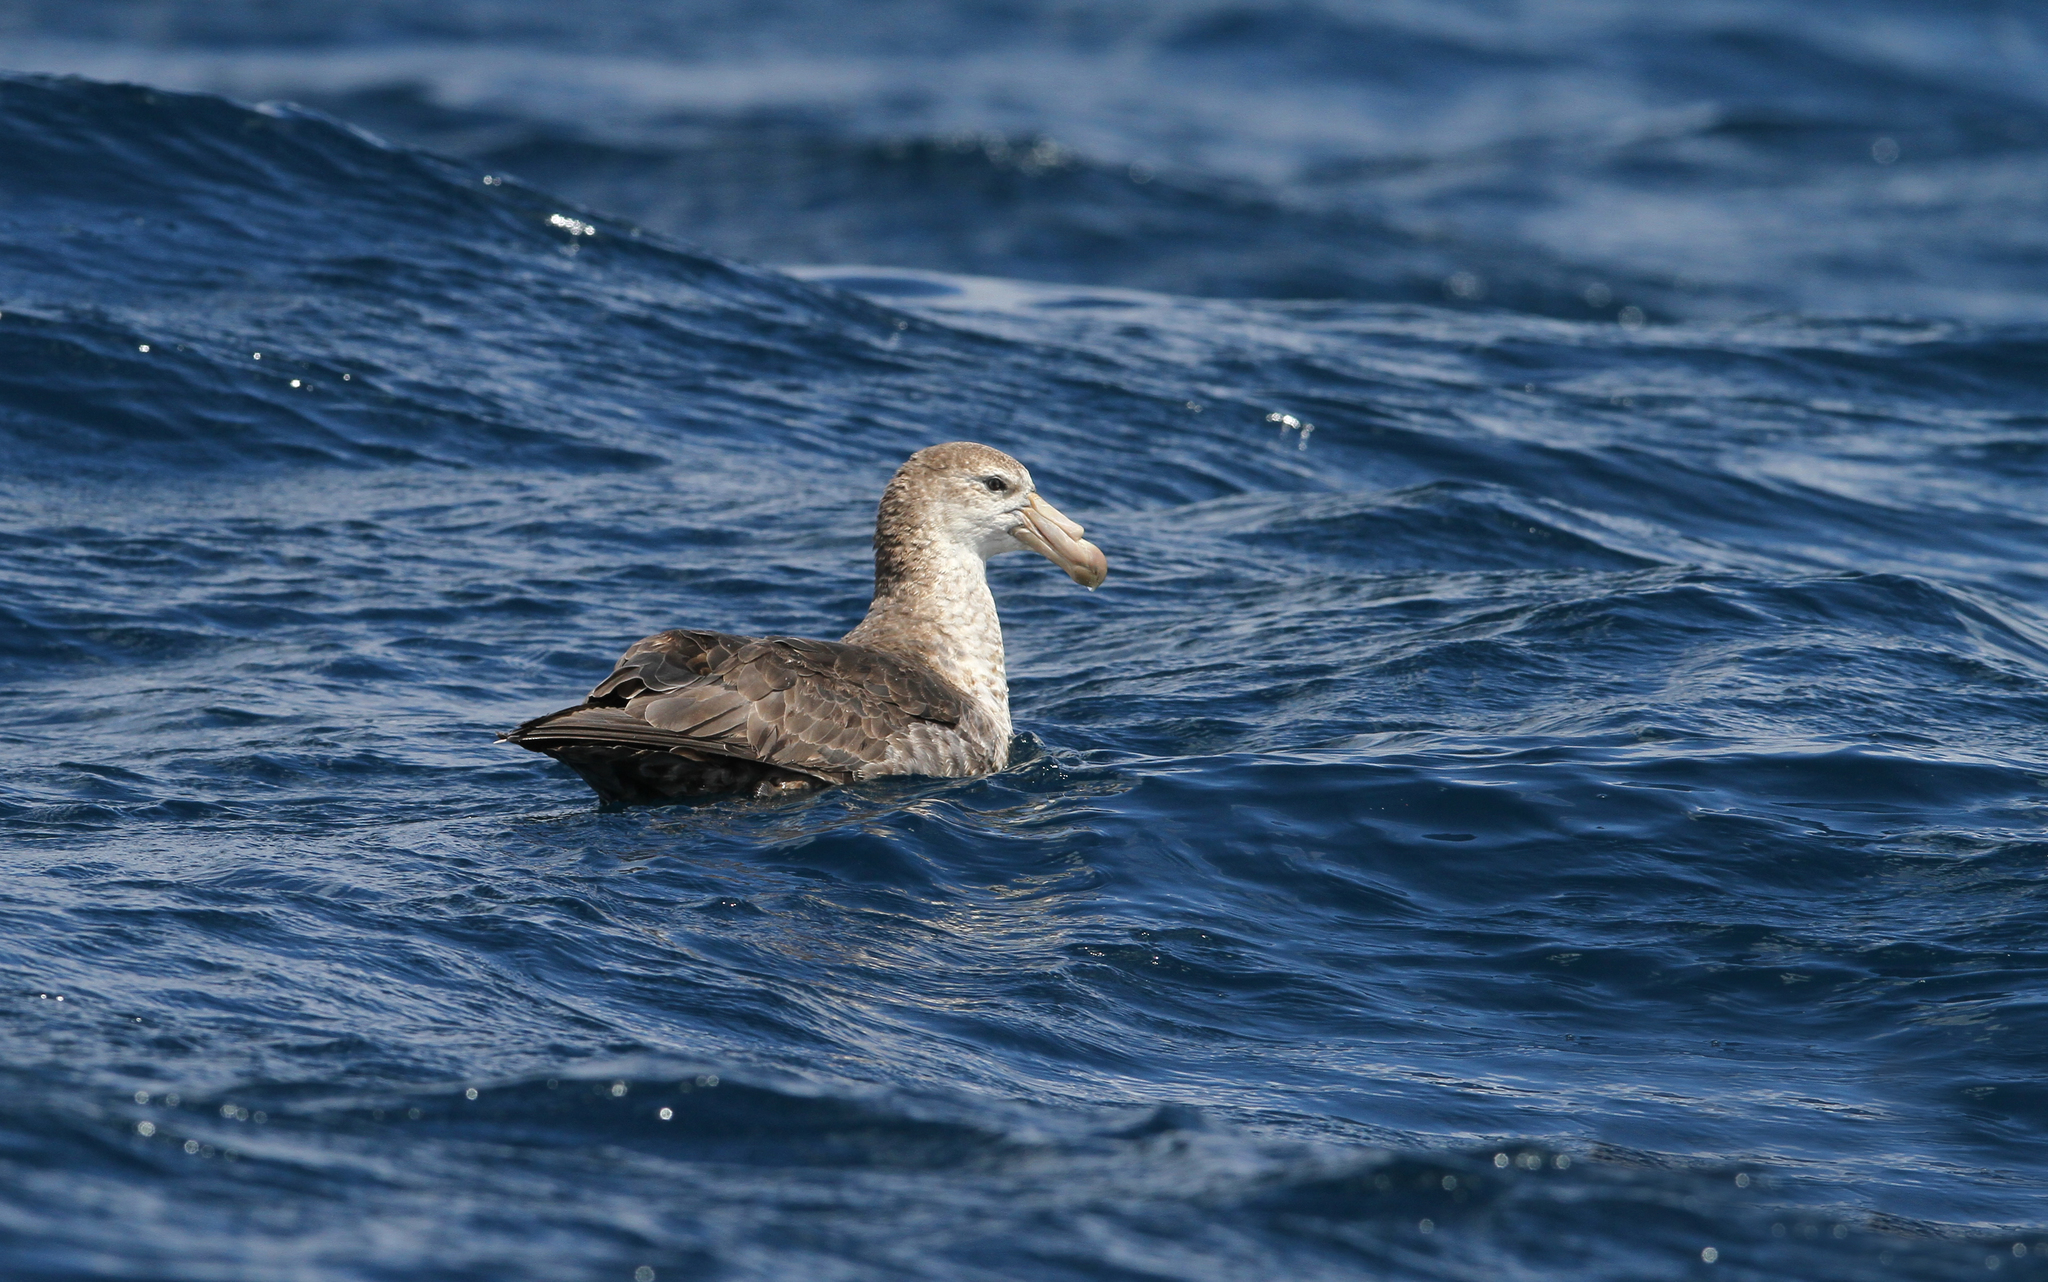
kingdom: Animalia
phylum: Chordata
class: Aves
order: Procellariiformes
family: Procellariidae
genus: Macronectes
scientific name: Macronectes halli
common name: Northern giant petrel
